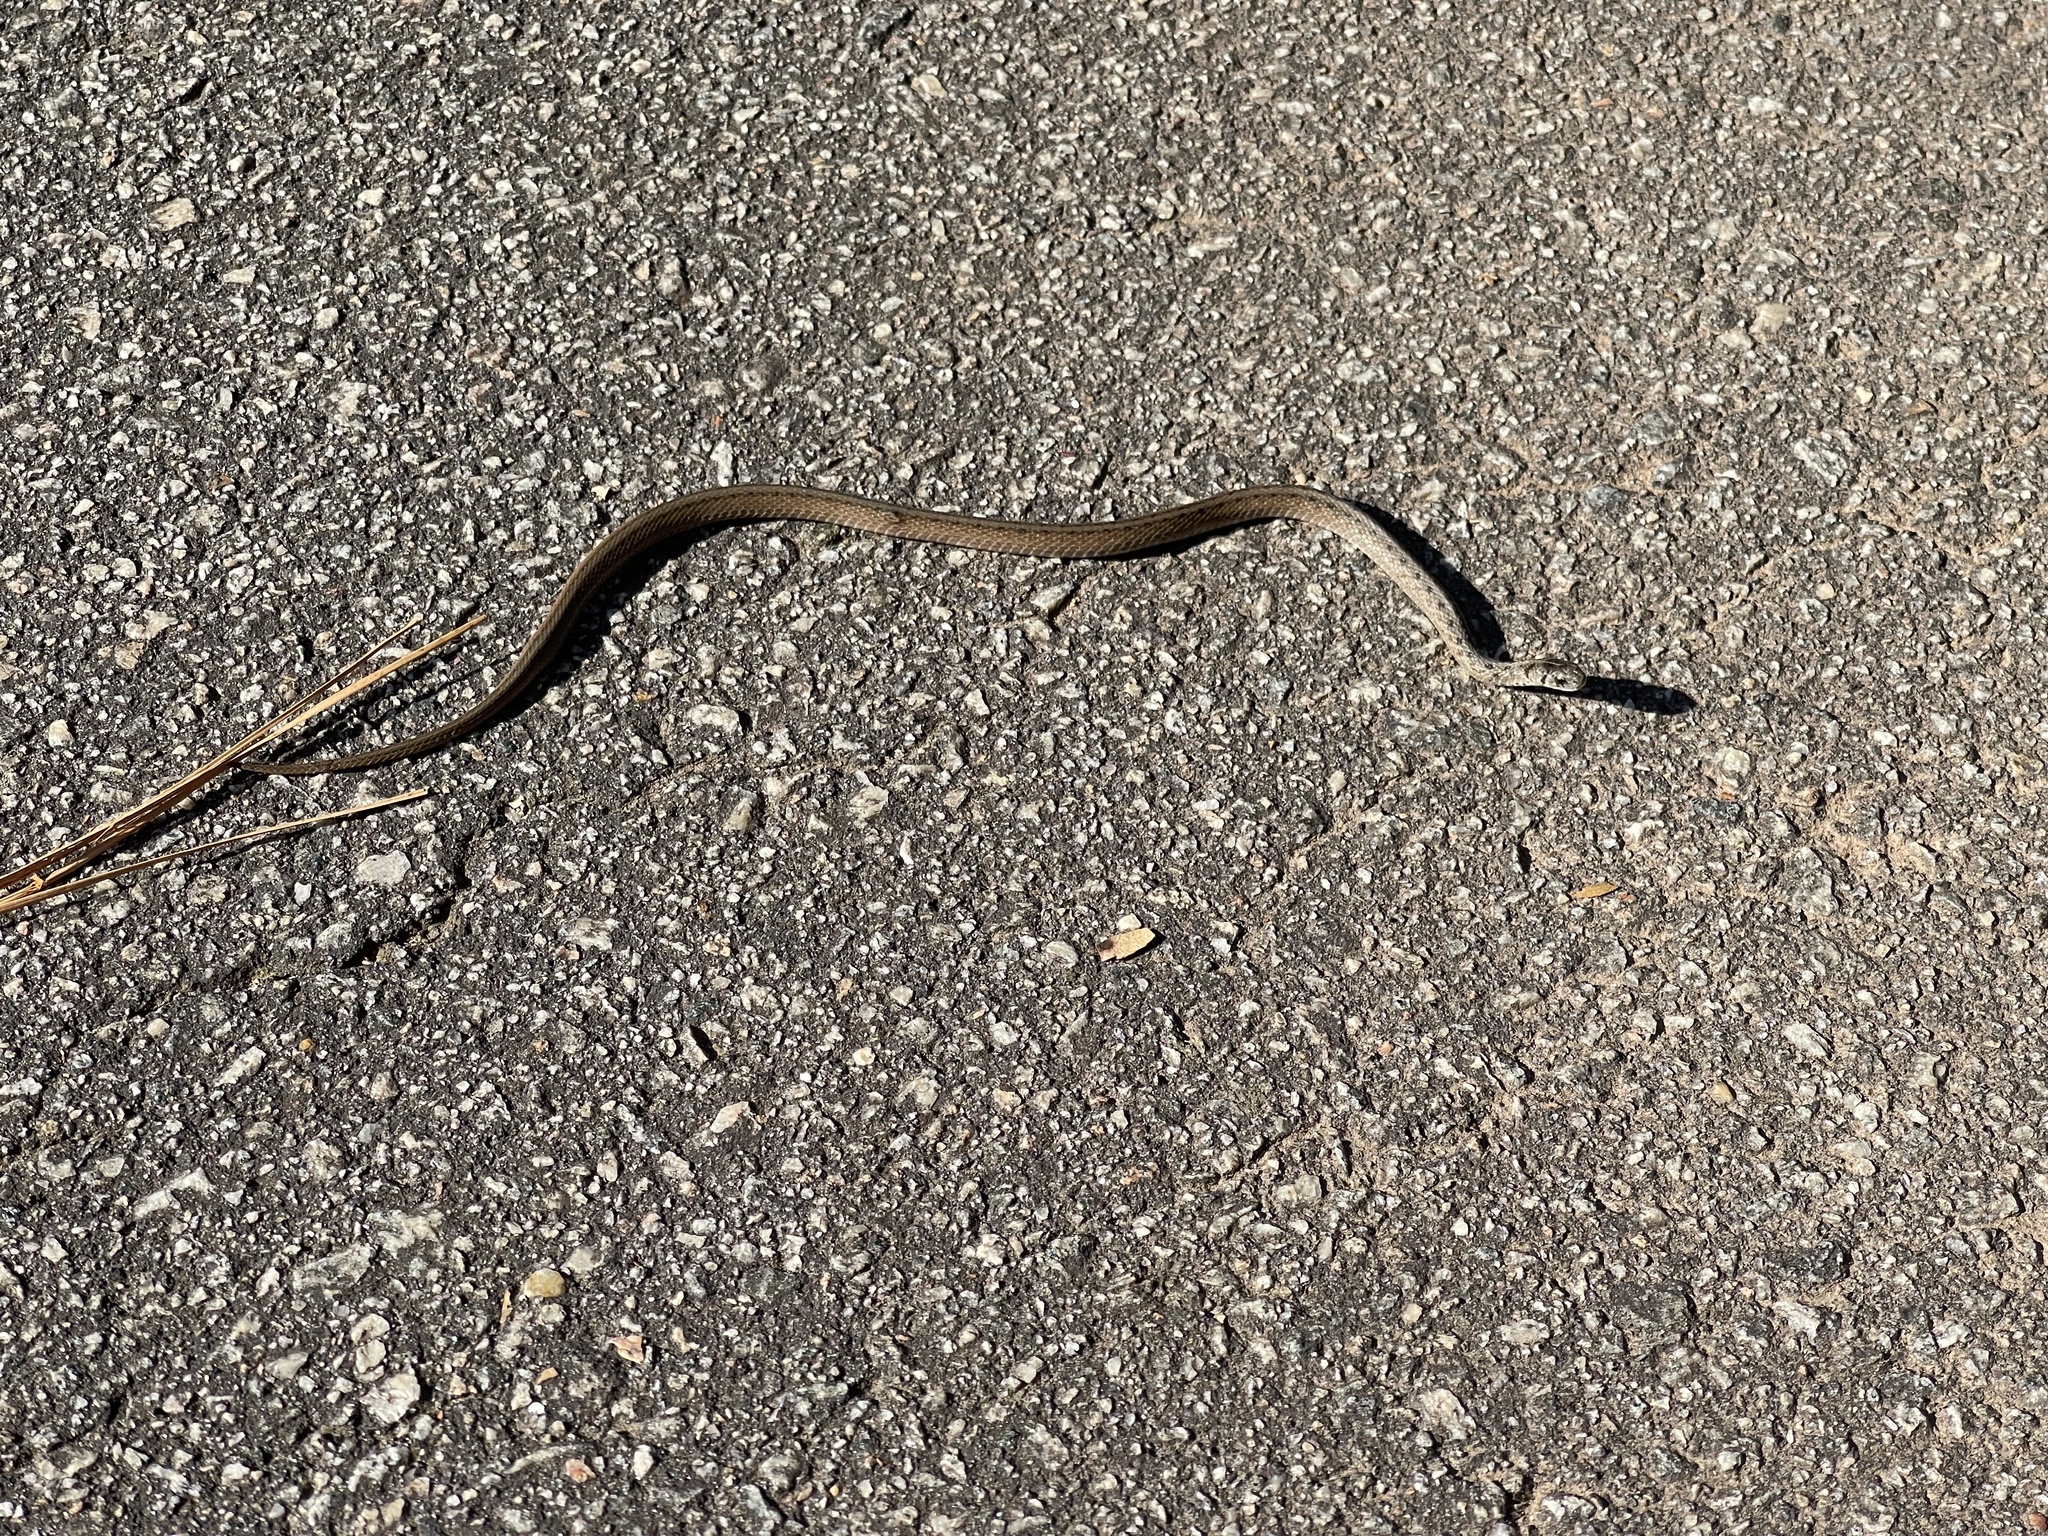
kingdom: Animalia
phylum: Chordata
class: Squamata
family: Colubridae
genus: Storeria
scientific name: Storeria dekayi
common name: (dekay’s) brown snake
